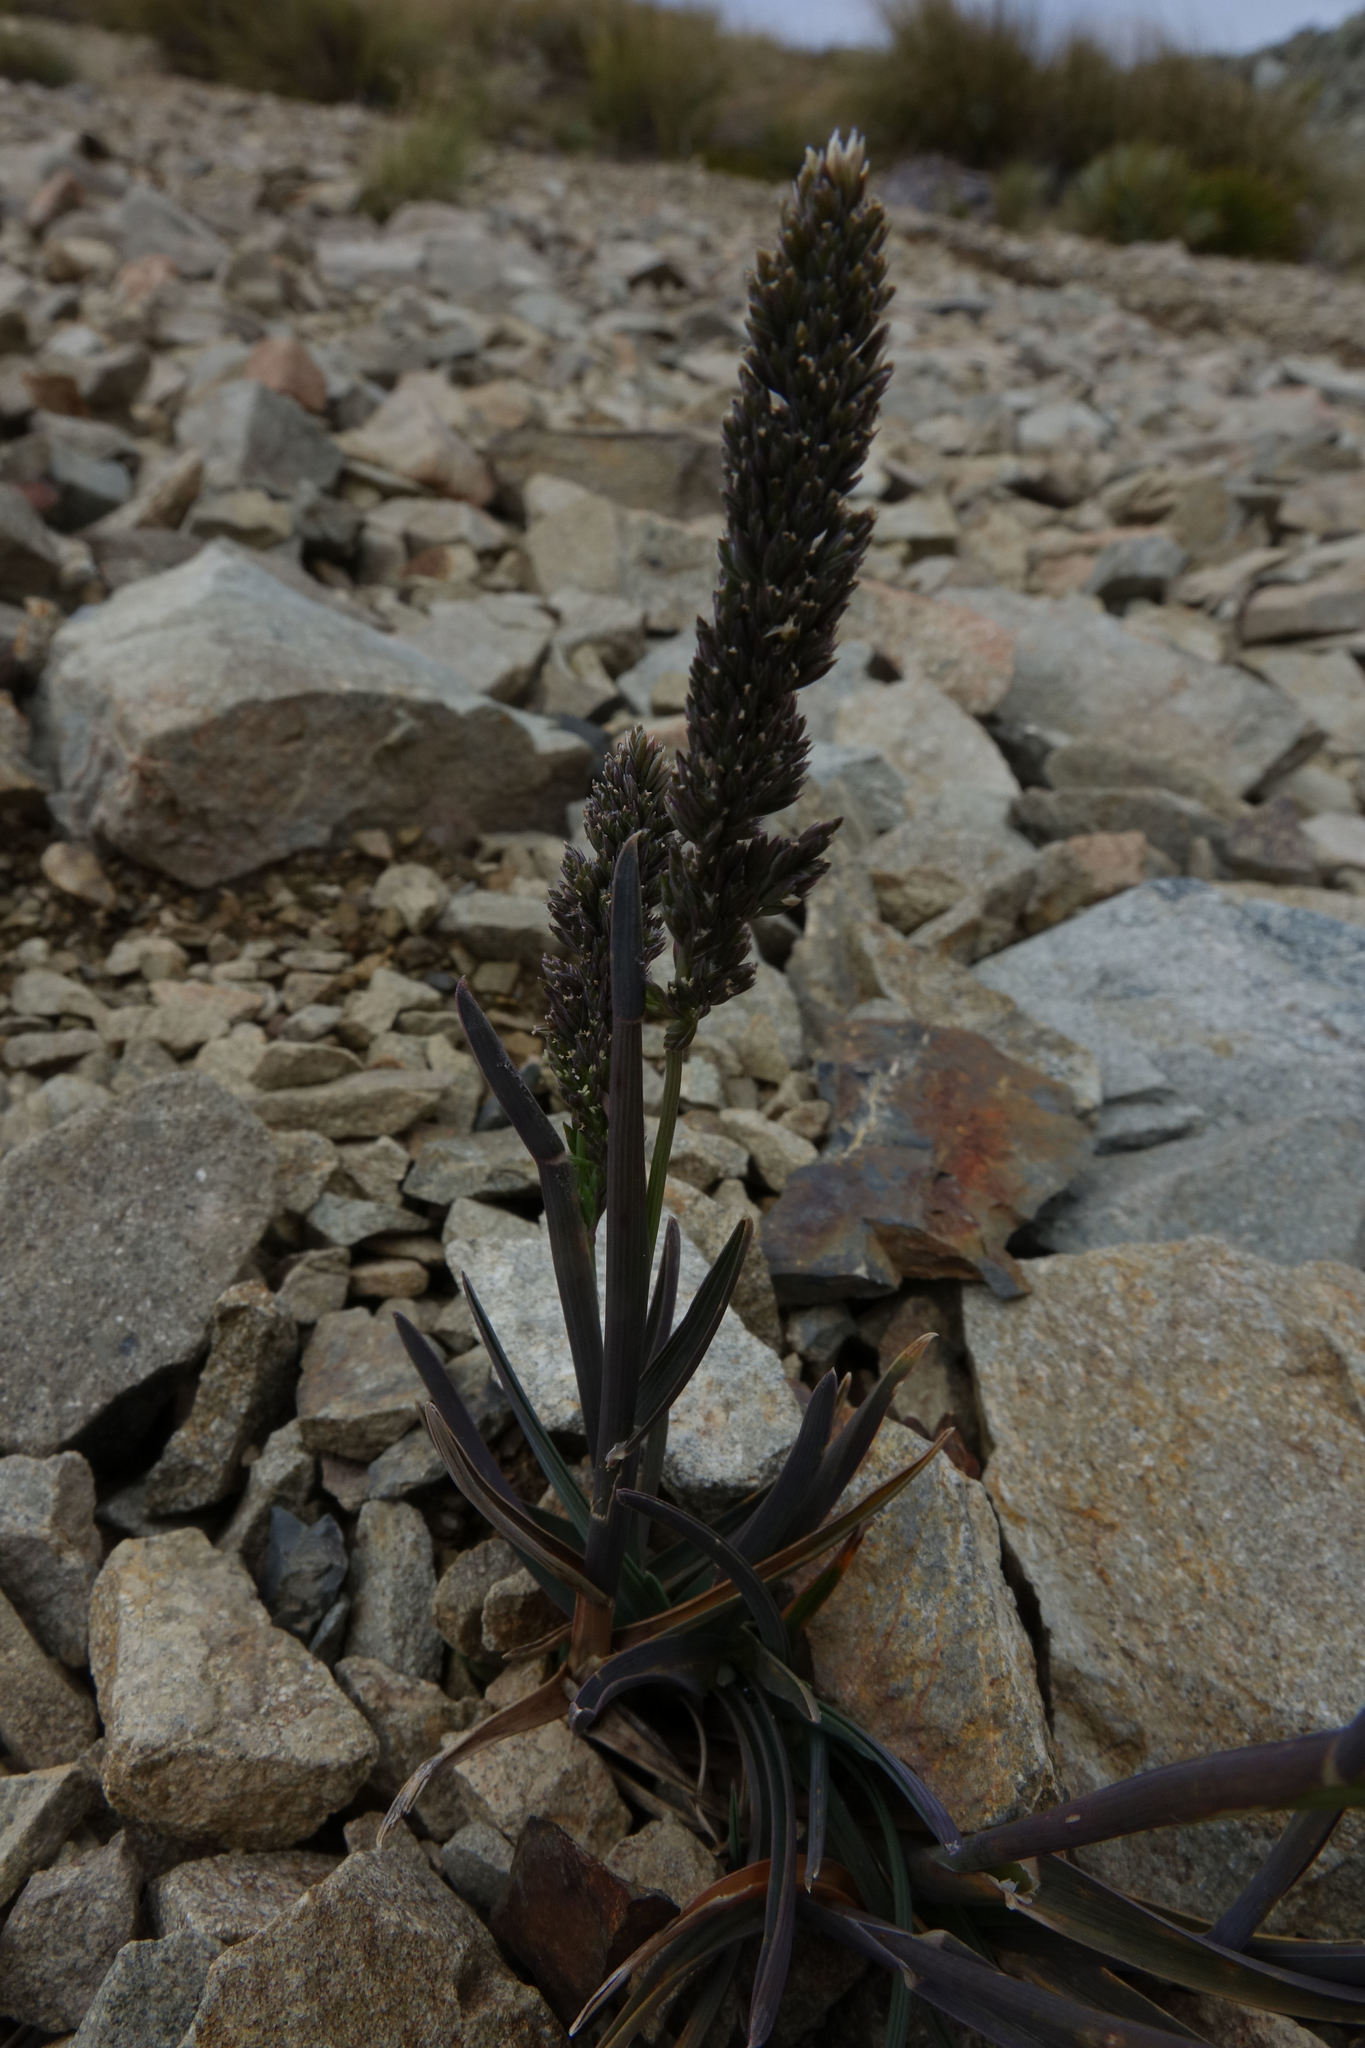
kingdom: Plantae
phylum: Tracheophyta
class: Liliopsida
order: Poales
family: Poaceae
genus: Poa
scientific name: Poa buchananii
